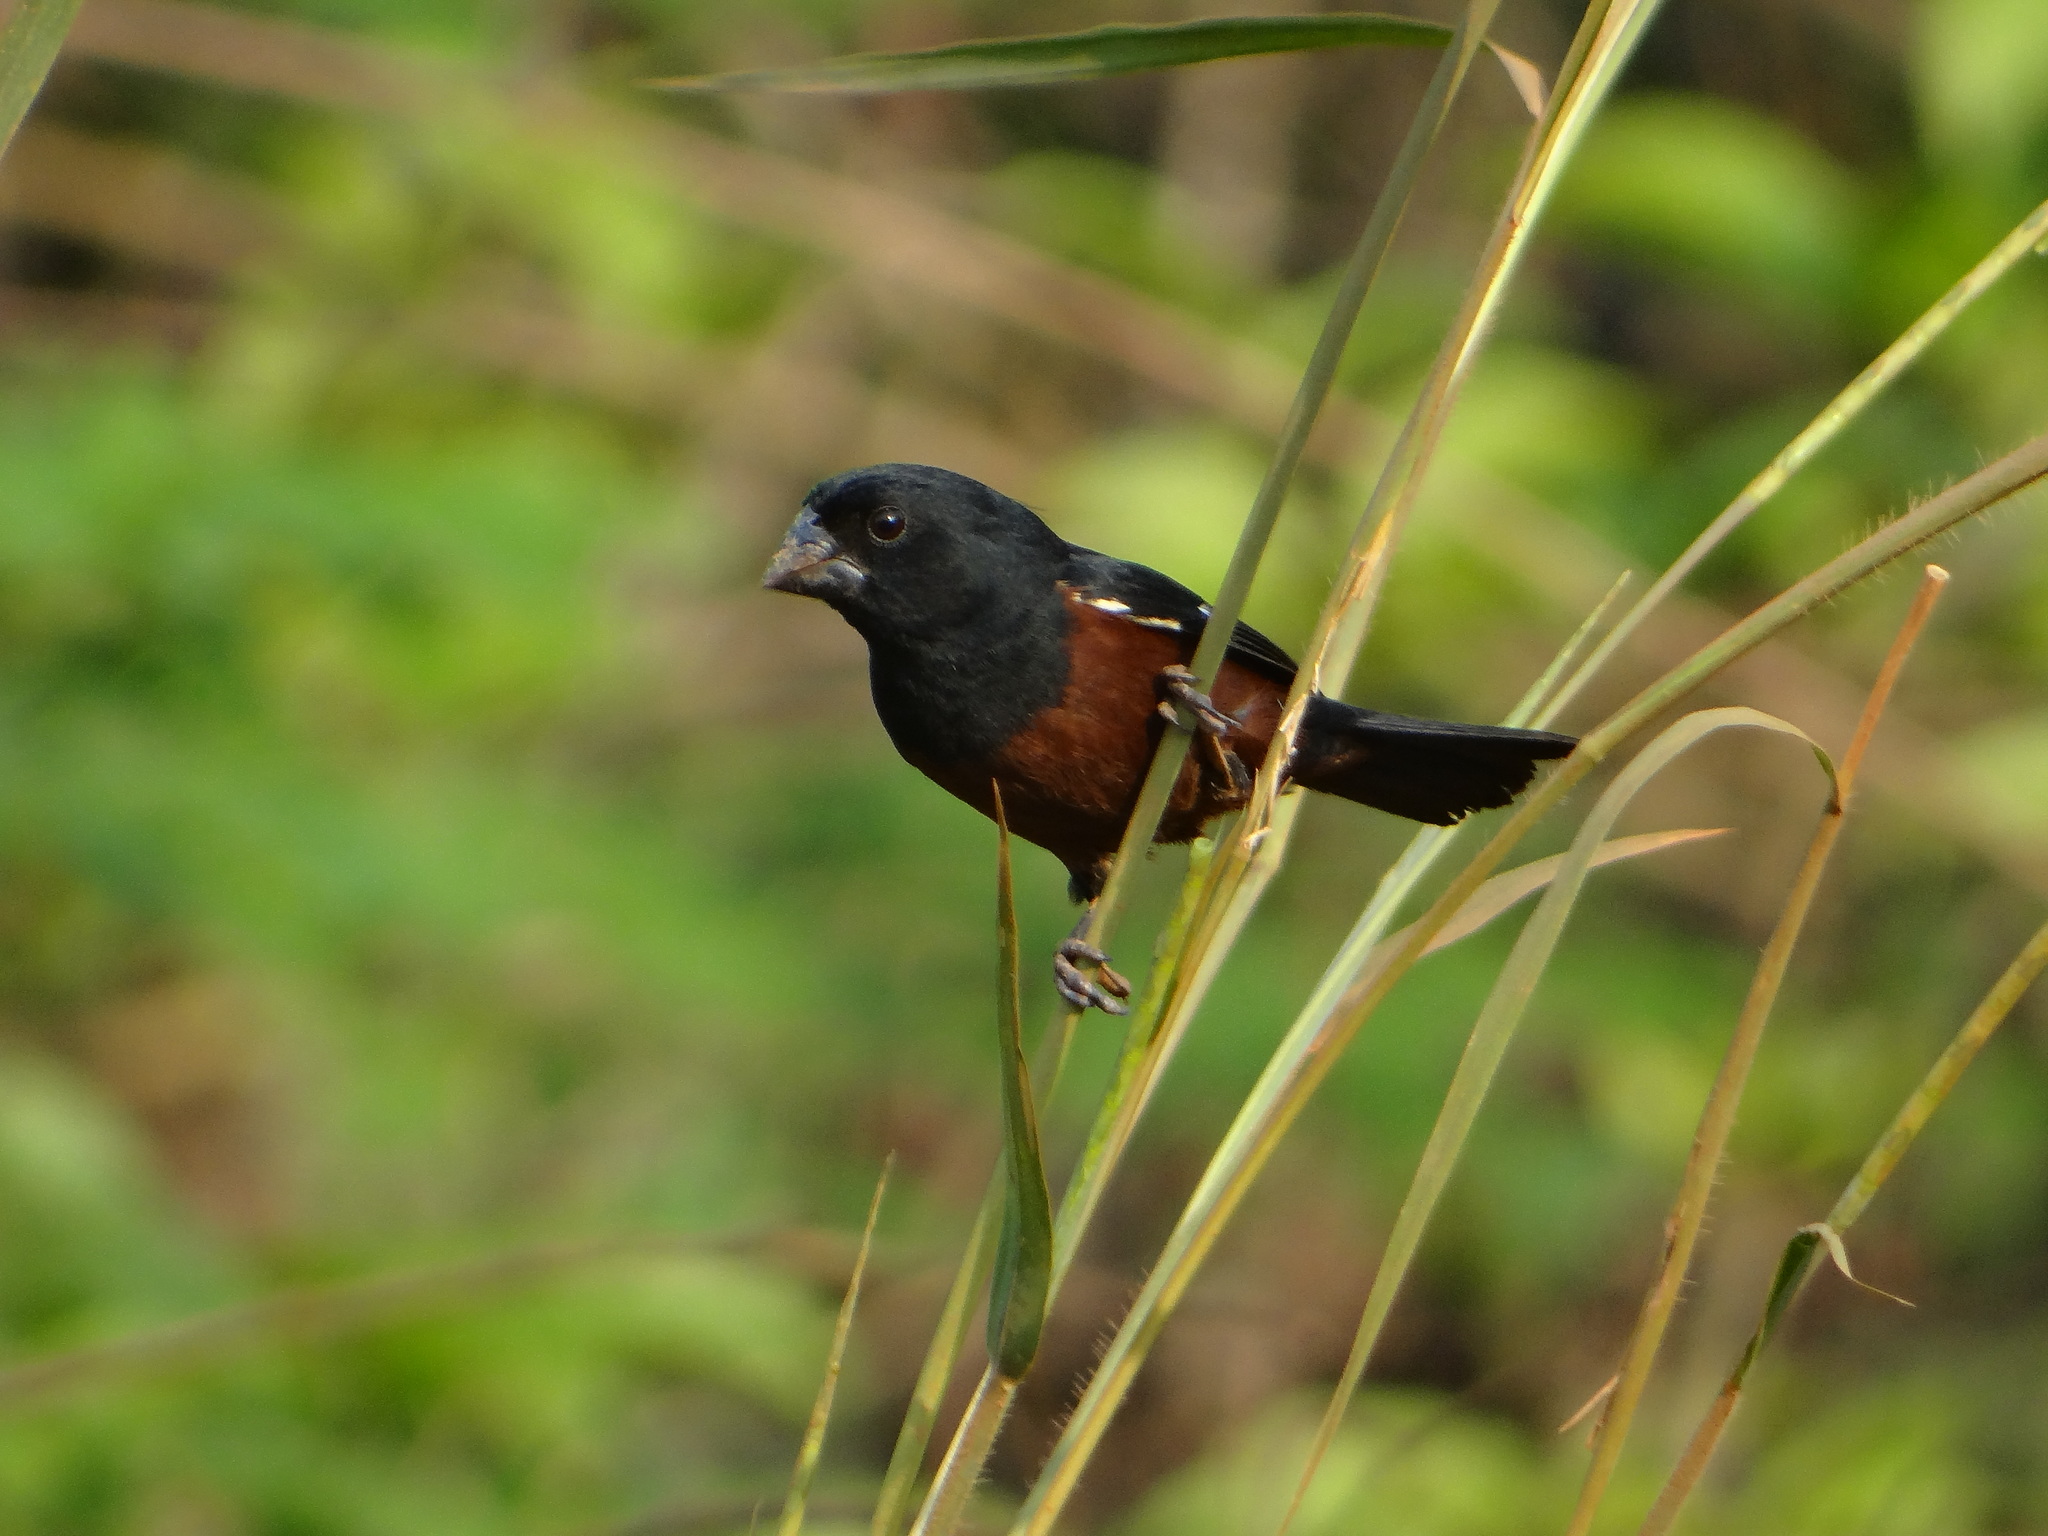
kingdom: Animalia
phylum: Chordata
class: Aves
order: Passeriformes
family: Thraupidae
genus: Sporophila
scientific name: Sporophila angolensis
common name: Chestnut-bellied seed-finch
